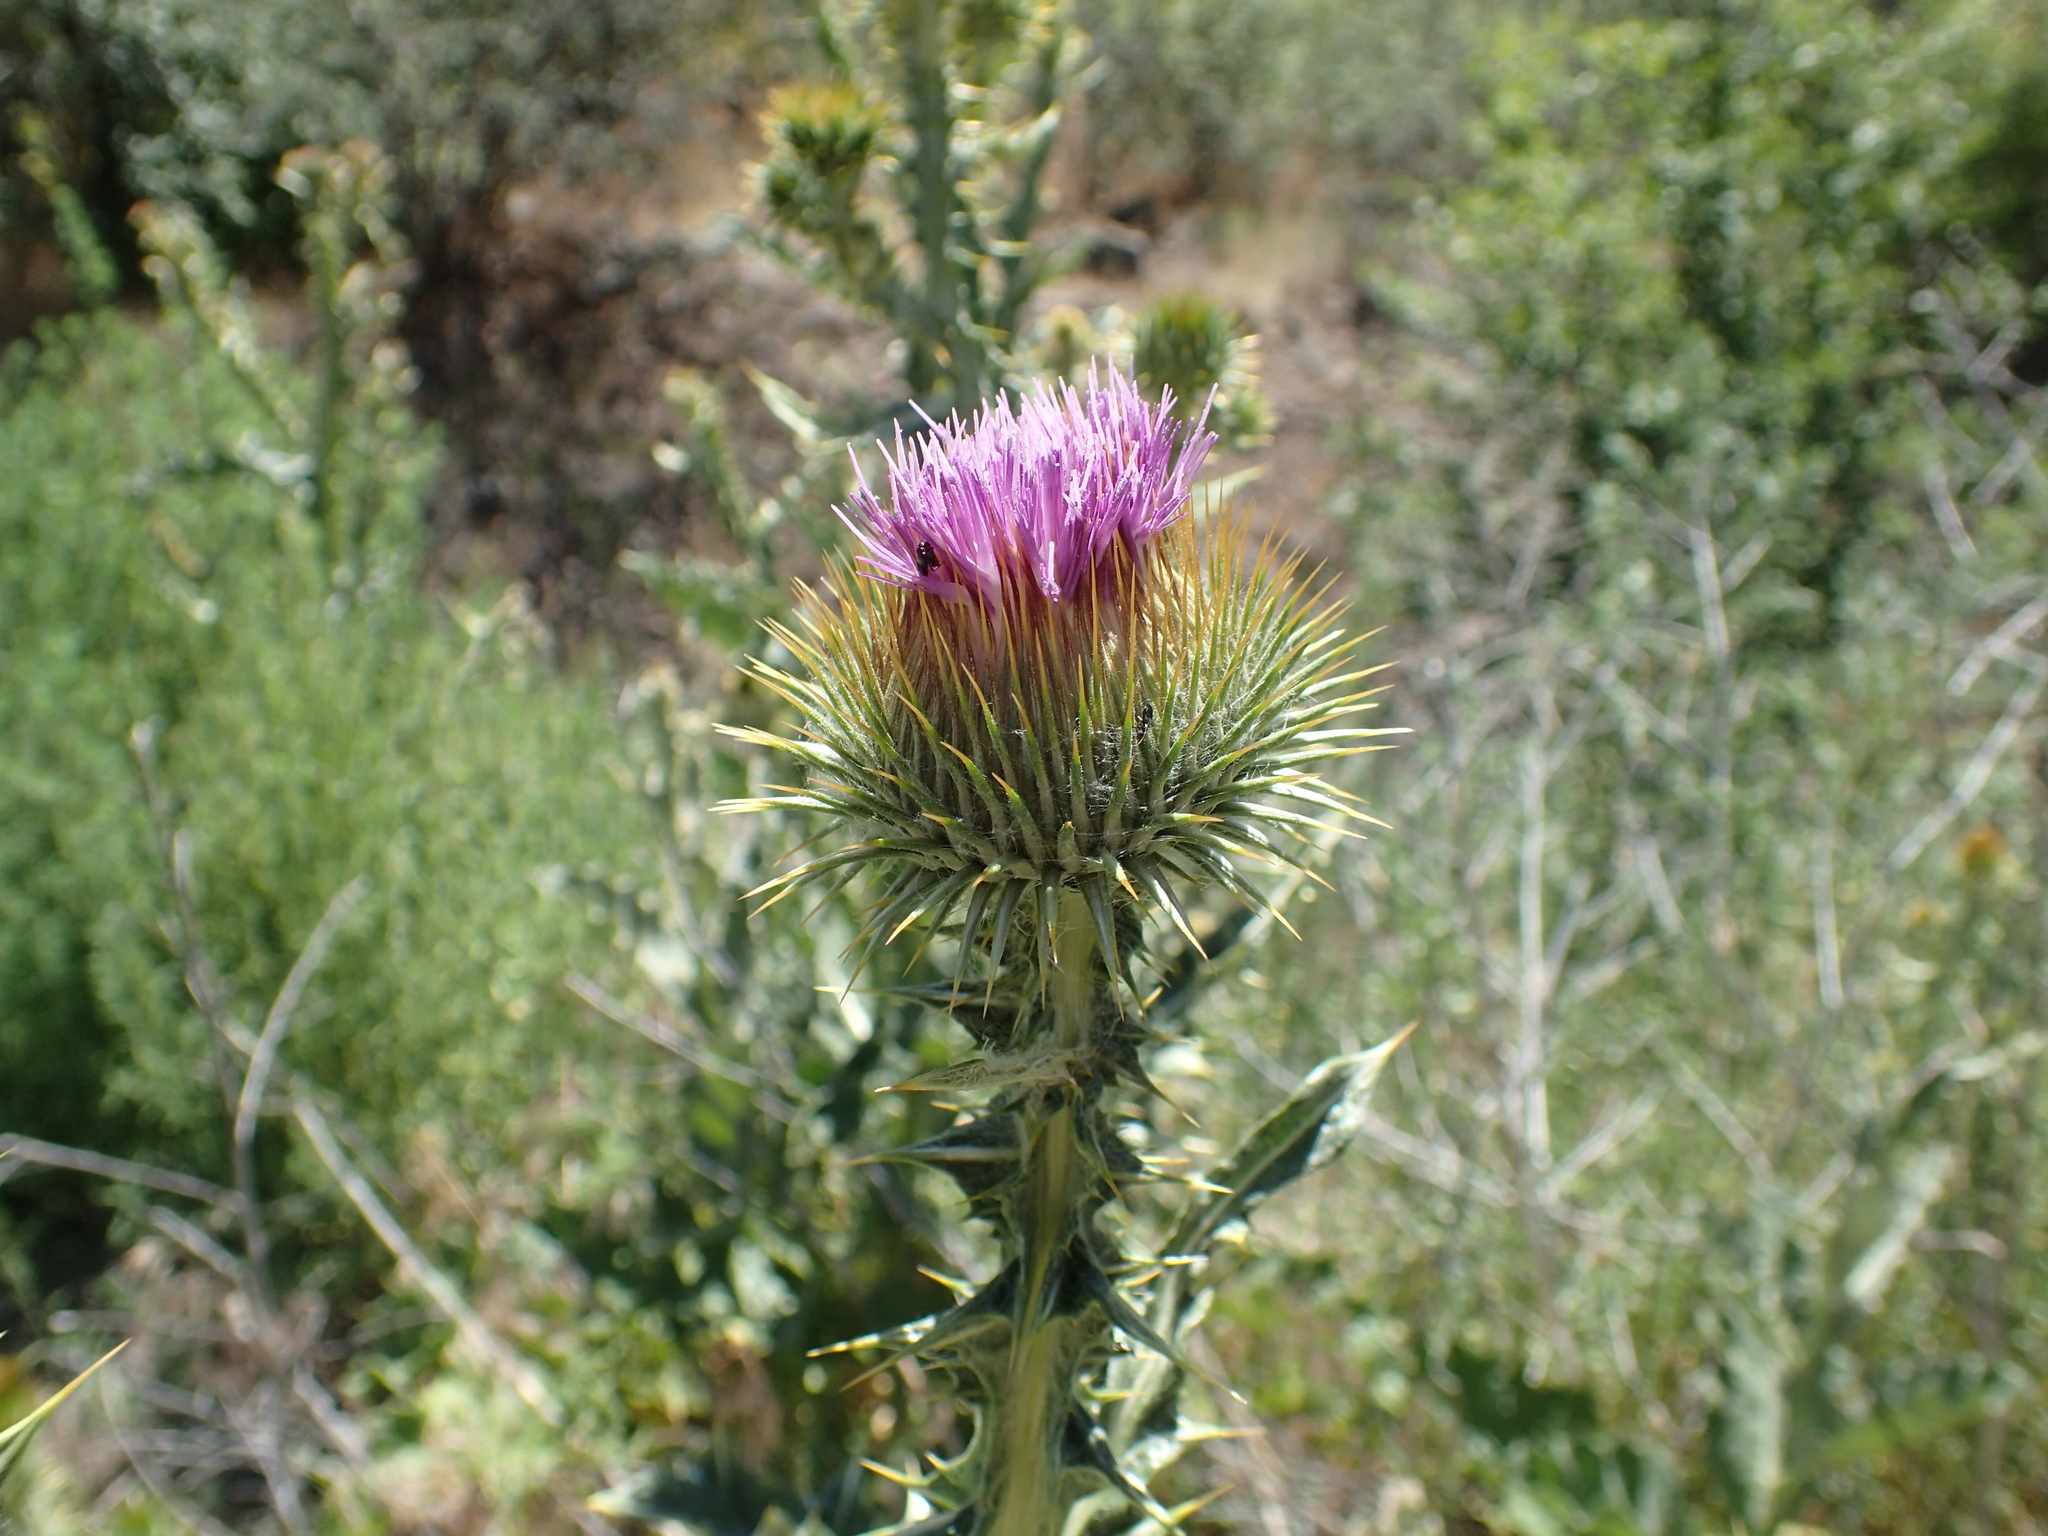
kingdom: Plantae
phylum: Tracheophyta
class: Magnoliopsida
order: Asterales
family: Asteraceae
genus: Helianthus
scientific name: Helianthus annuus
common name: Sunflower
